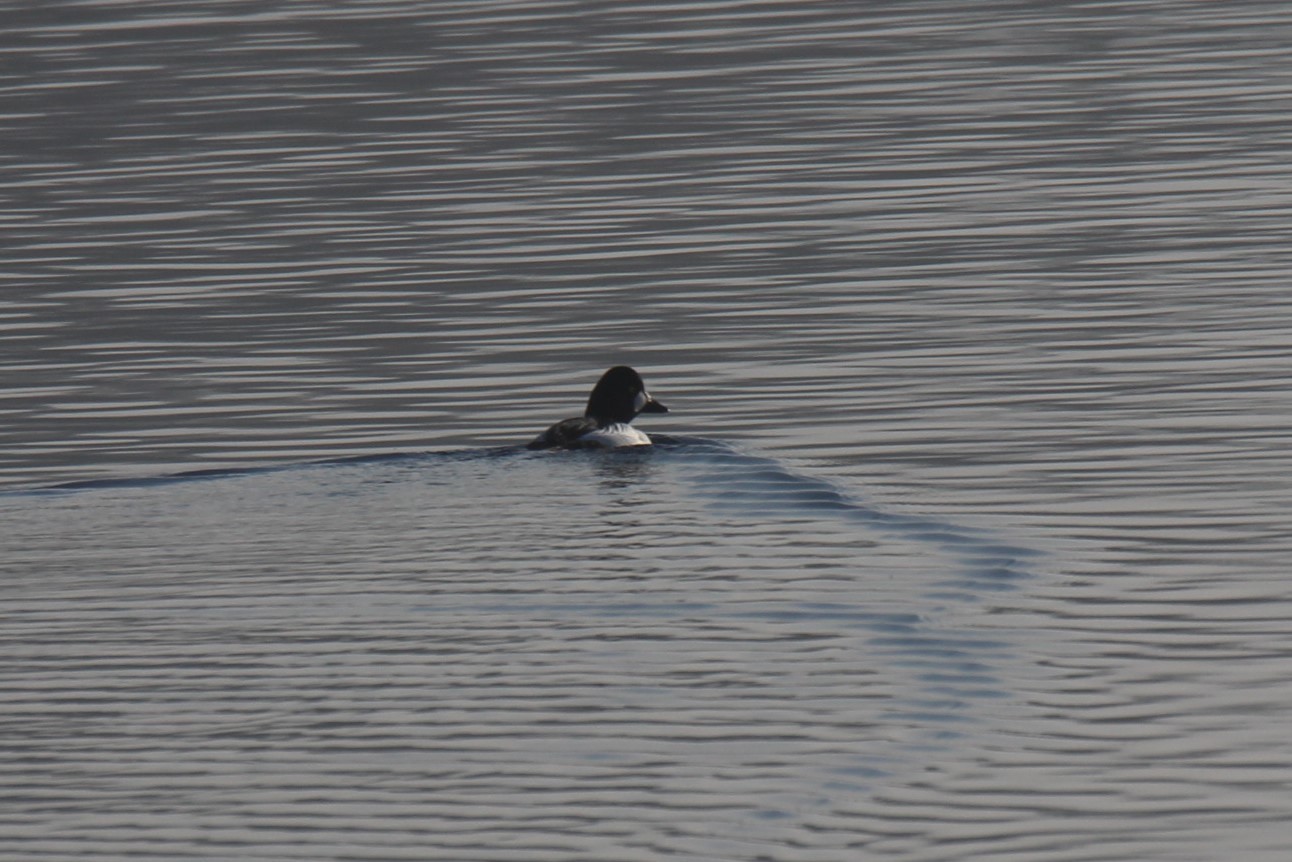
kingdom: Animalia
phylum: Chordata
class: Aves
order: Anseriformes
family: Anatidae
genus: Bucephala
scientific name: Bucephala clangula
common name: Common goldeneye
